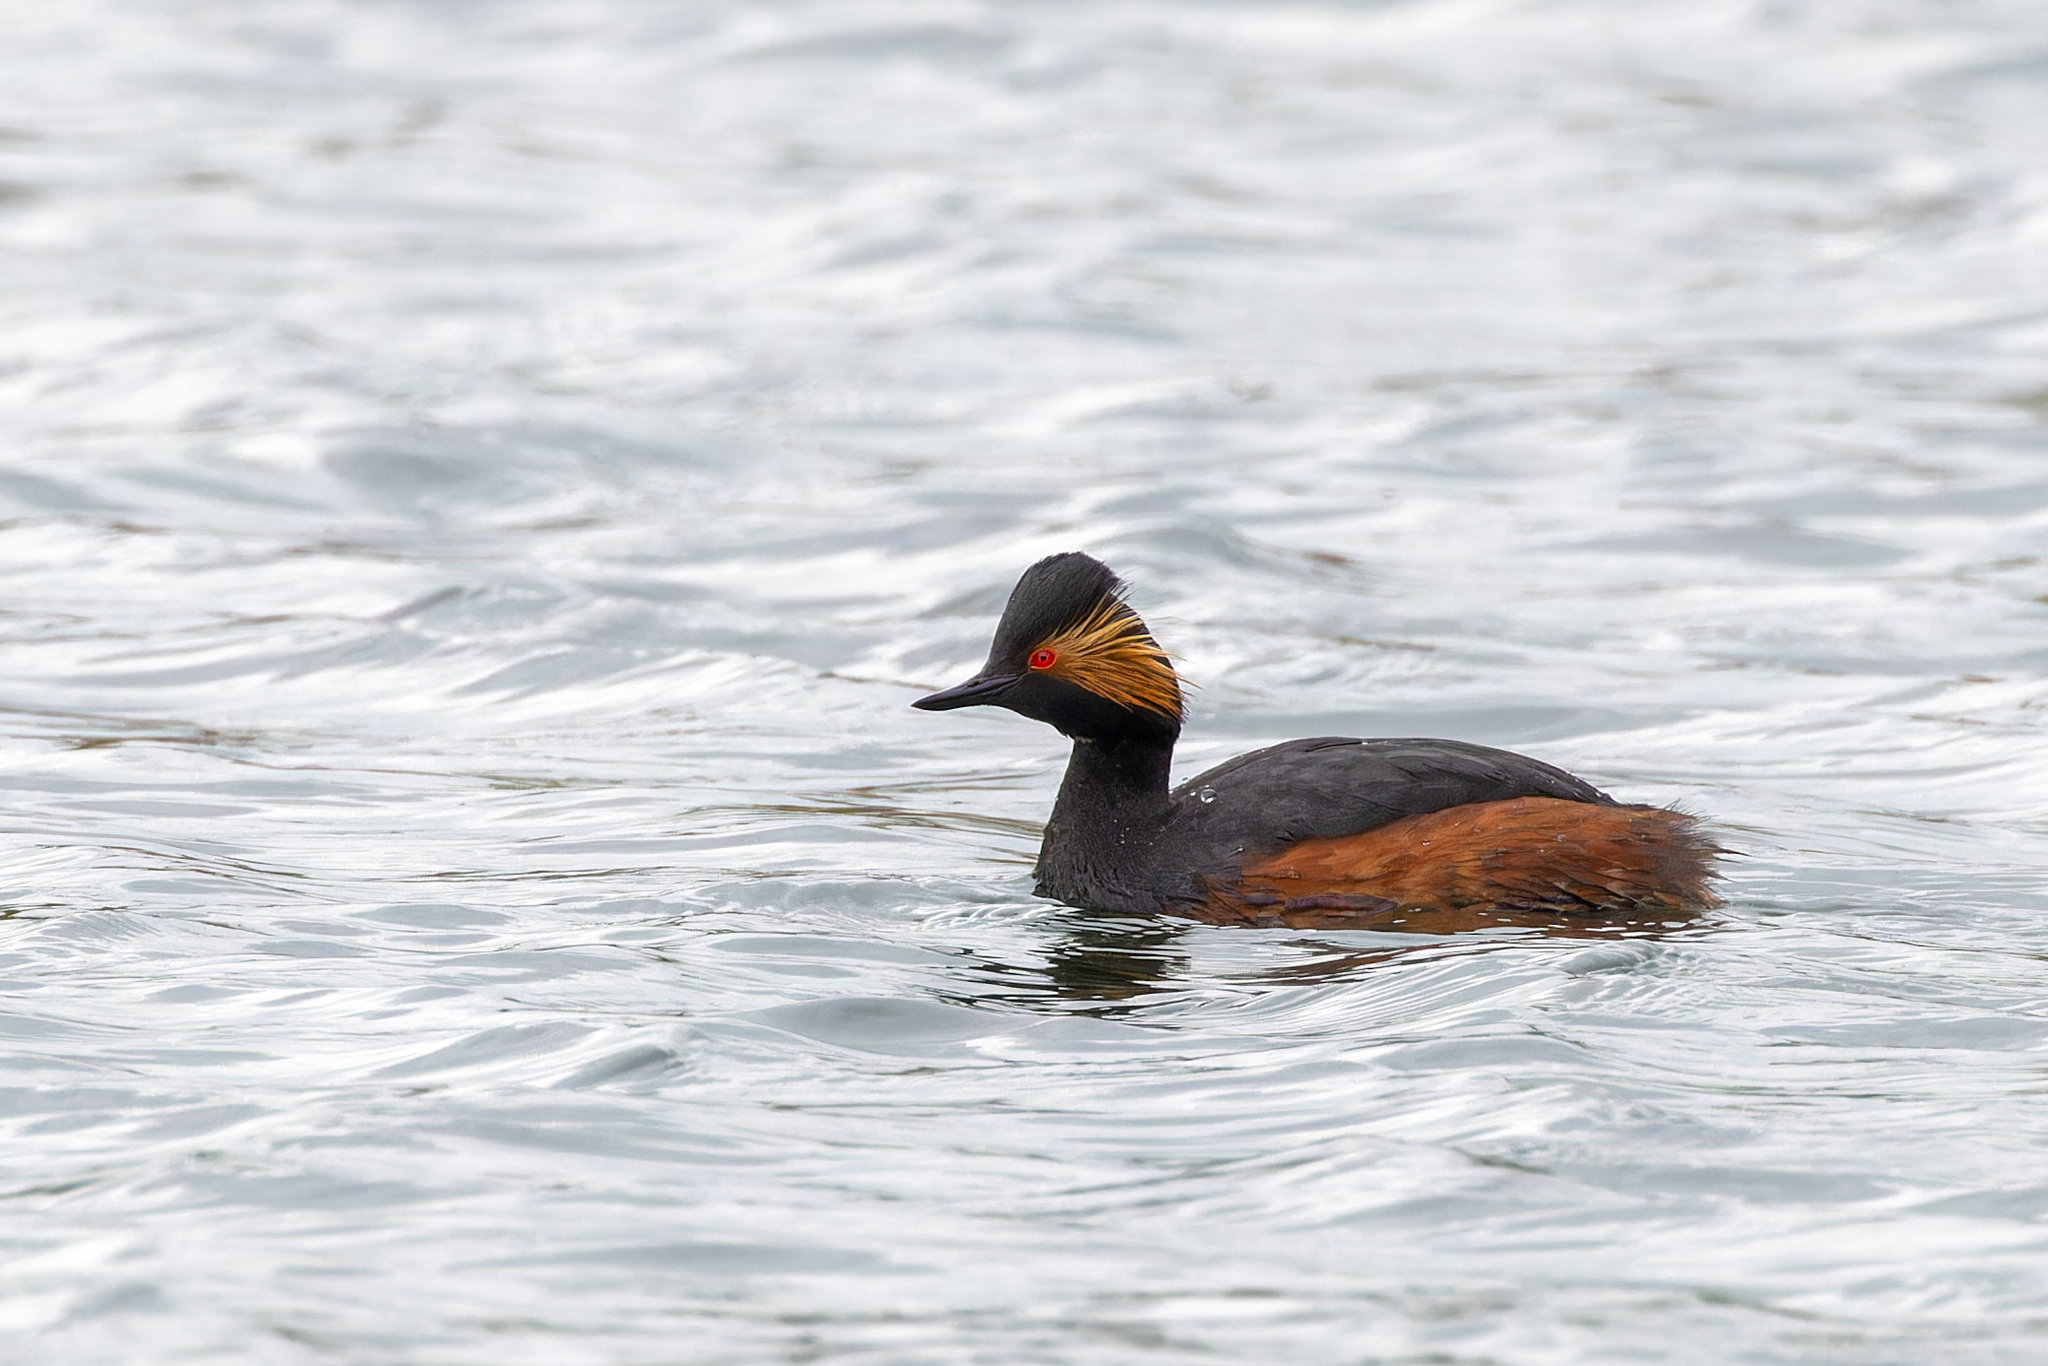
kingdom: Animalia
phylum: Chordata
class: Aves
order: Podicipediformes
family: Podicipedidae
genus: Podiceps
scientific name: Podiceps nigricollis
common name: Black-necked grebe
